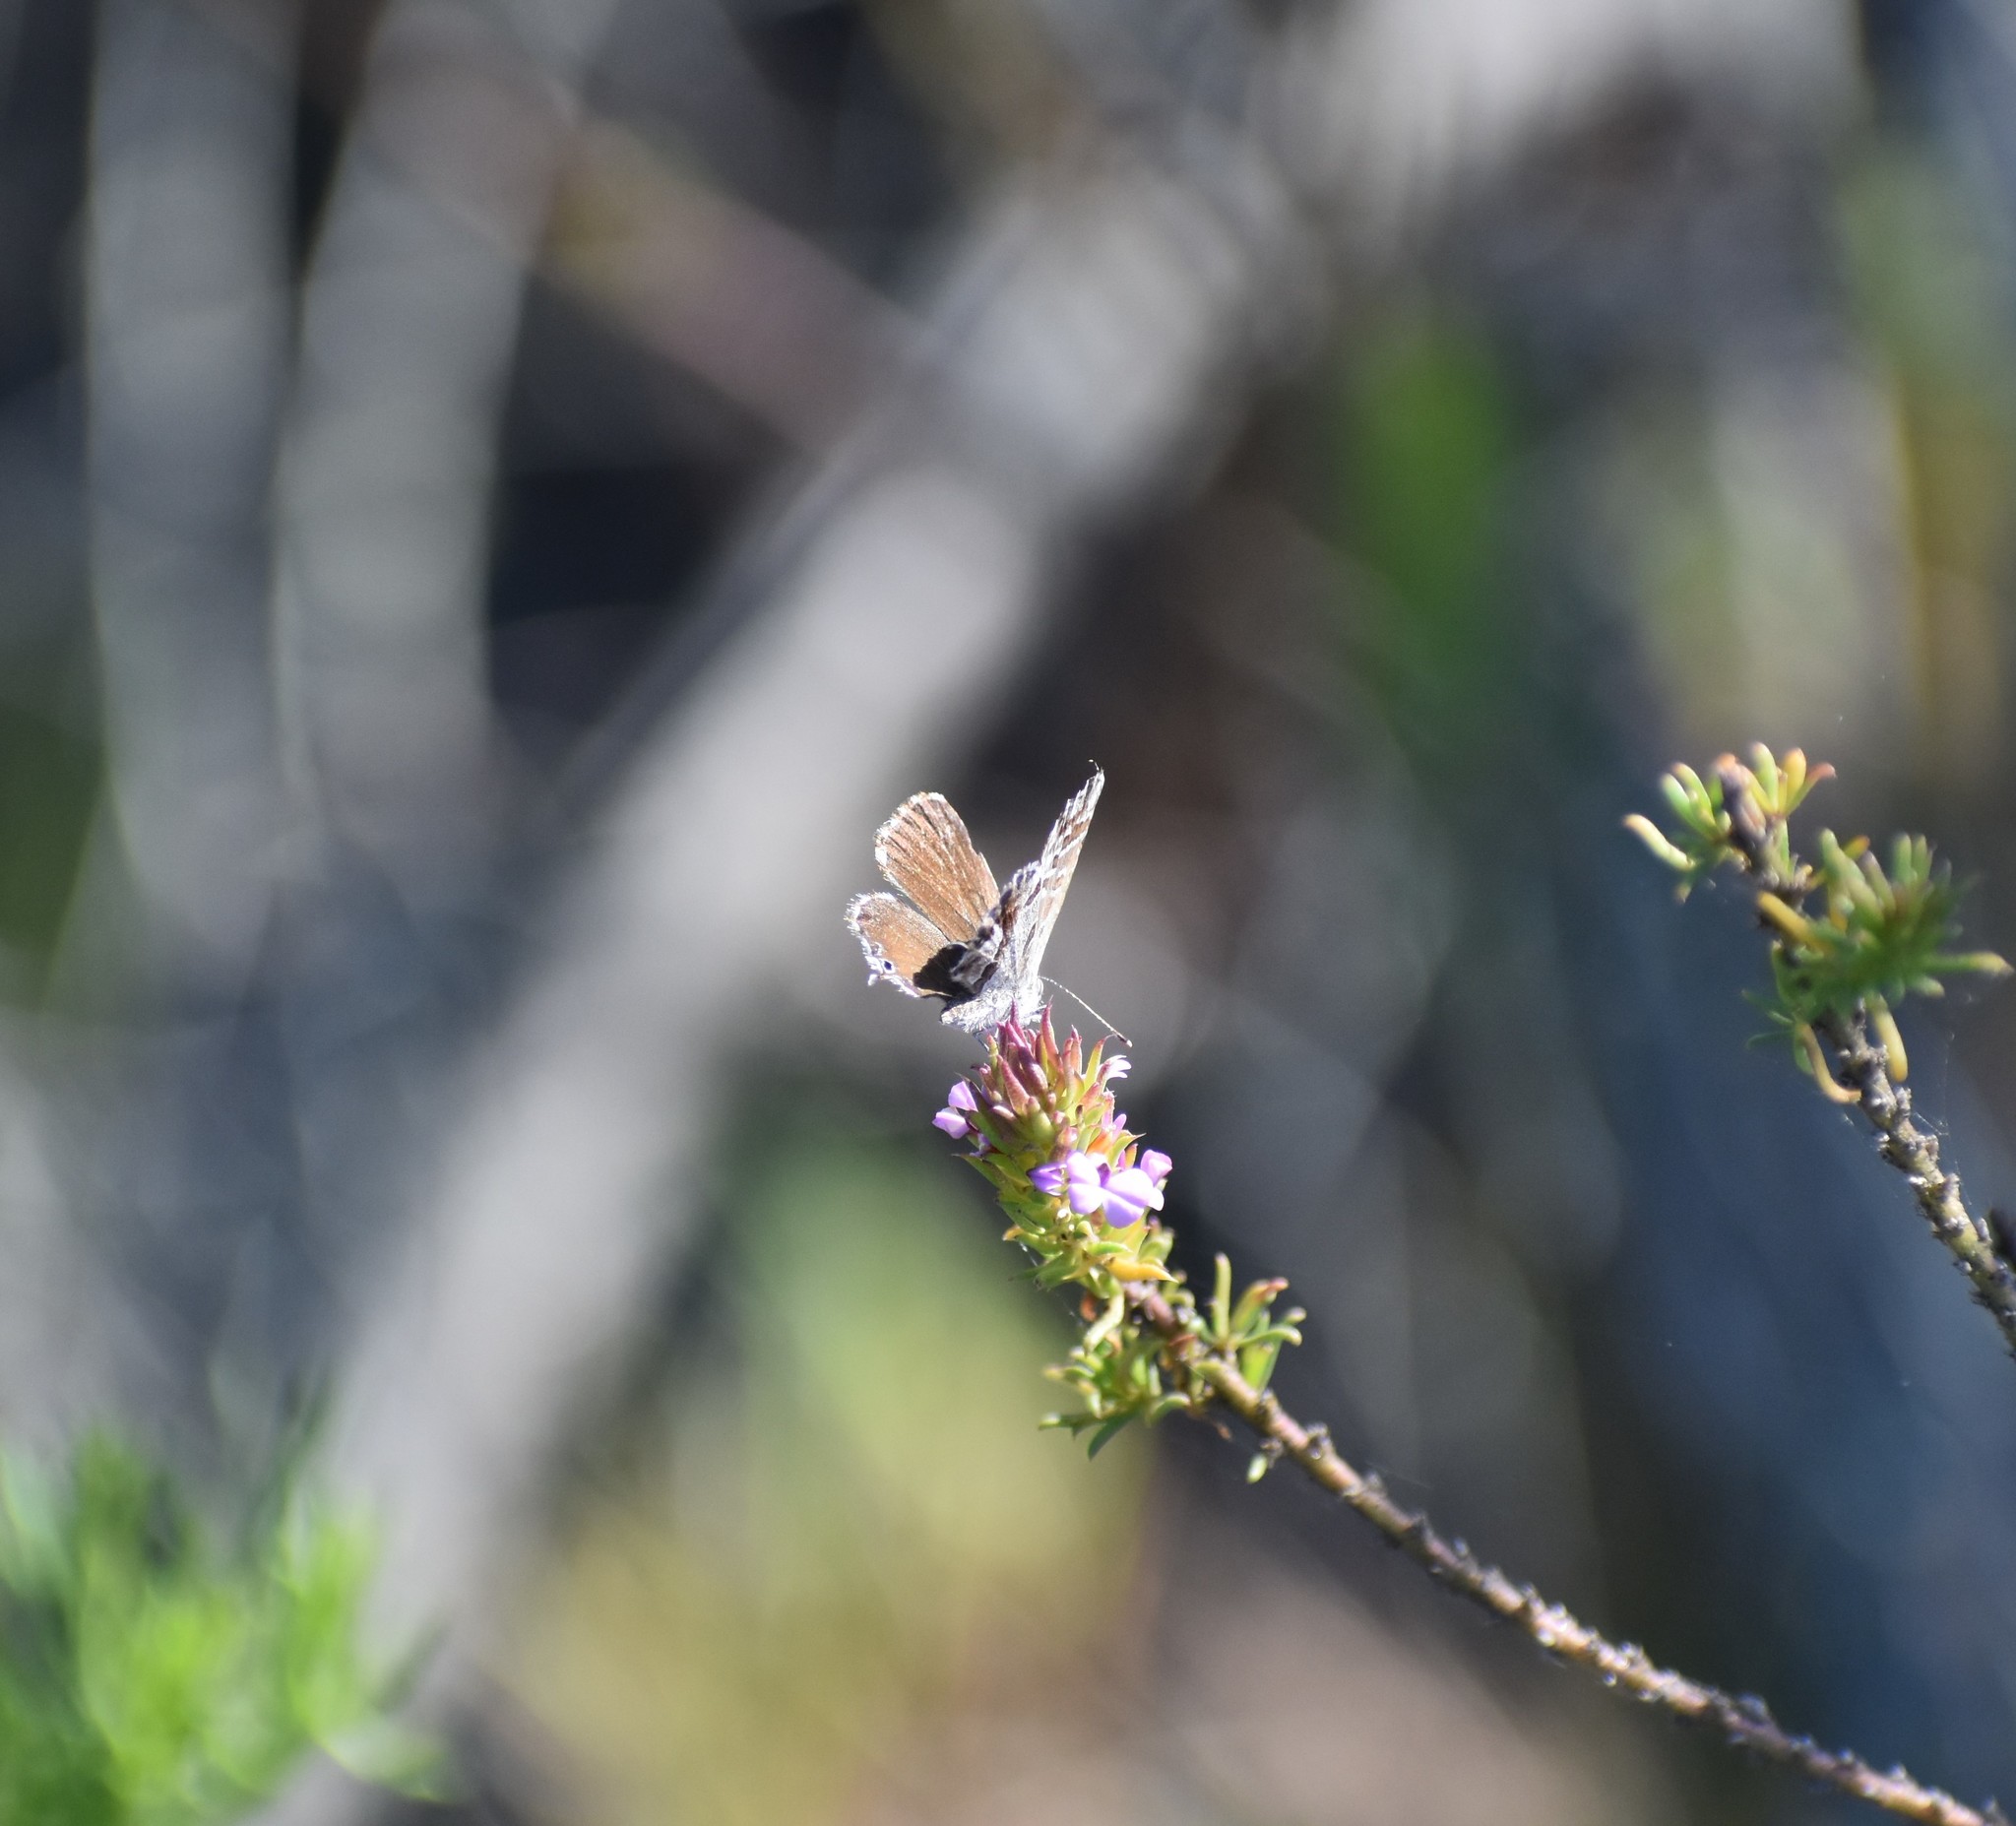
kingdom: Animalia
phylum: Arthropoda
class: Insecta
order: Lepidoptera
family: Lycaenidae
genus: Cacyreus
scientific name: Cacyreus fracta
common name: Water bronze
